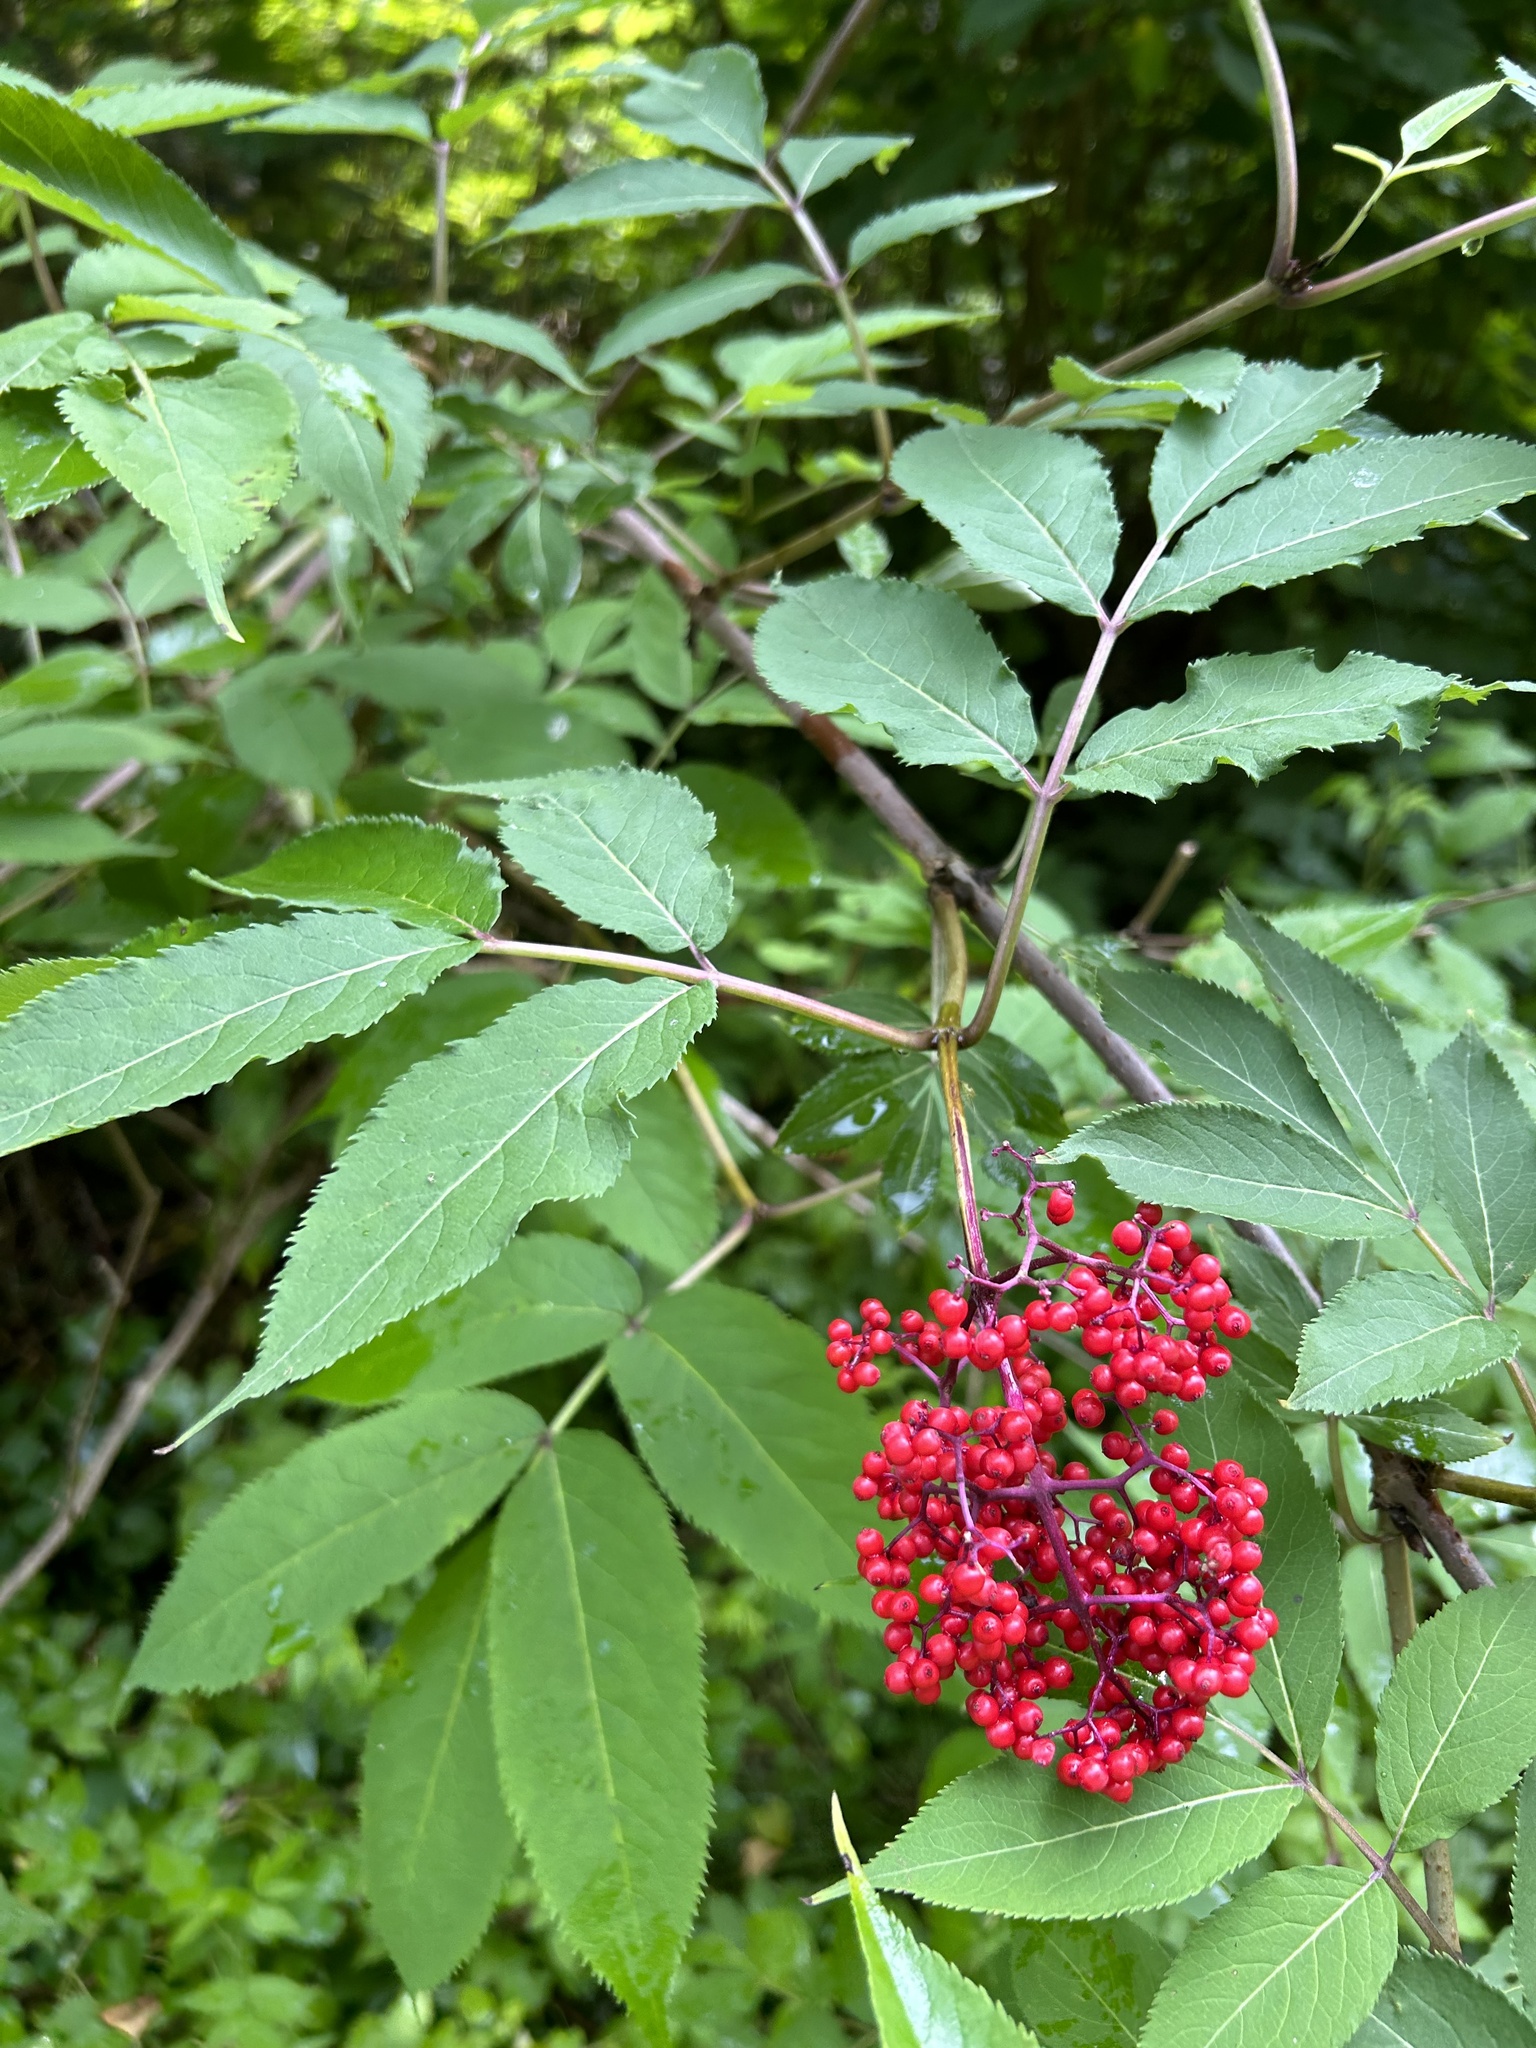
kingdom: Plantae
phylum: Tracheophyta
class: Magnoliopsida
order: Dipsacales
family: Viburnaceae
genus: Sambucus
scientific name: Sambucus racemosa
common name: Red-berried elder
